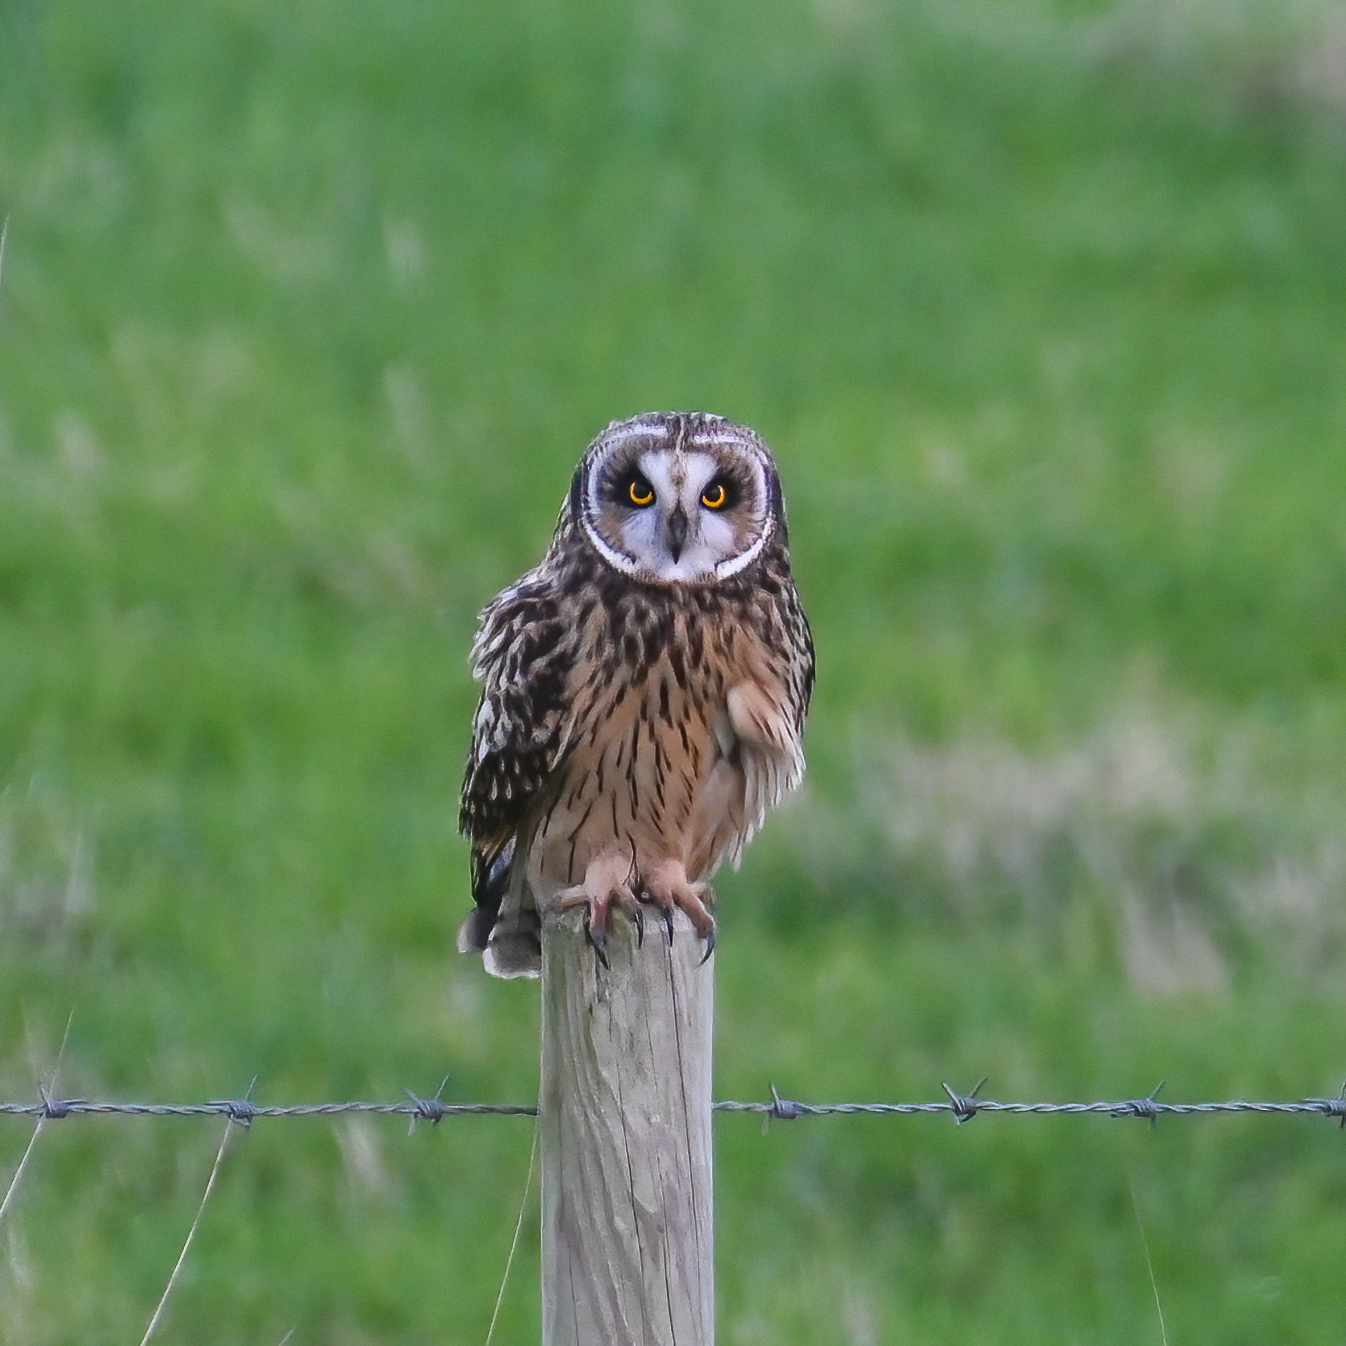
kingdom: Animalia
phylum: Chordata
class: Aves
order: Strigiformes
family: Strigidae
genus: Asio
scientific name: Asio flammeus
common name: Short-eared owl
